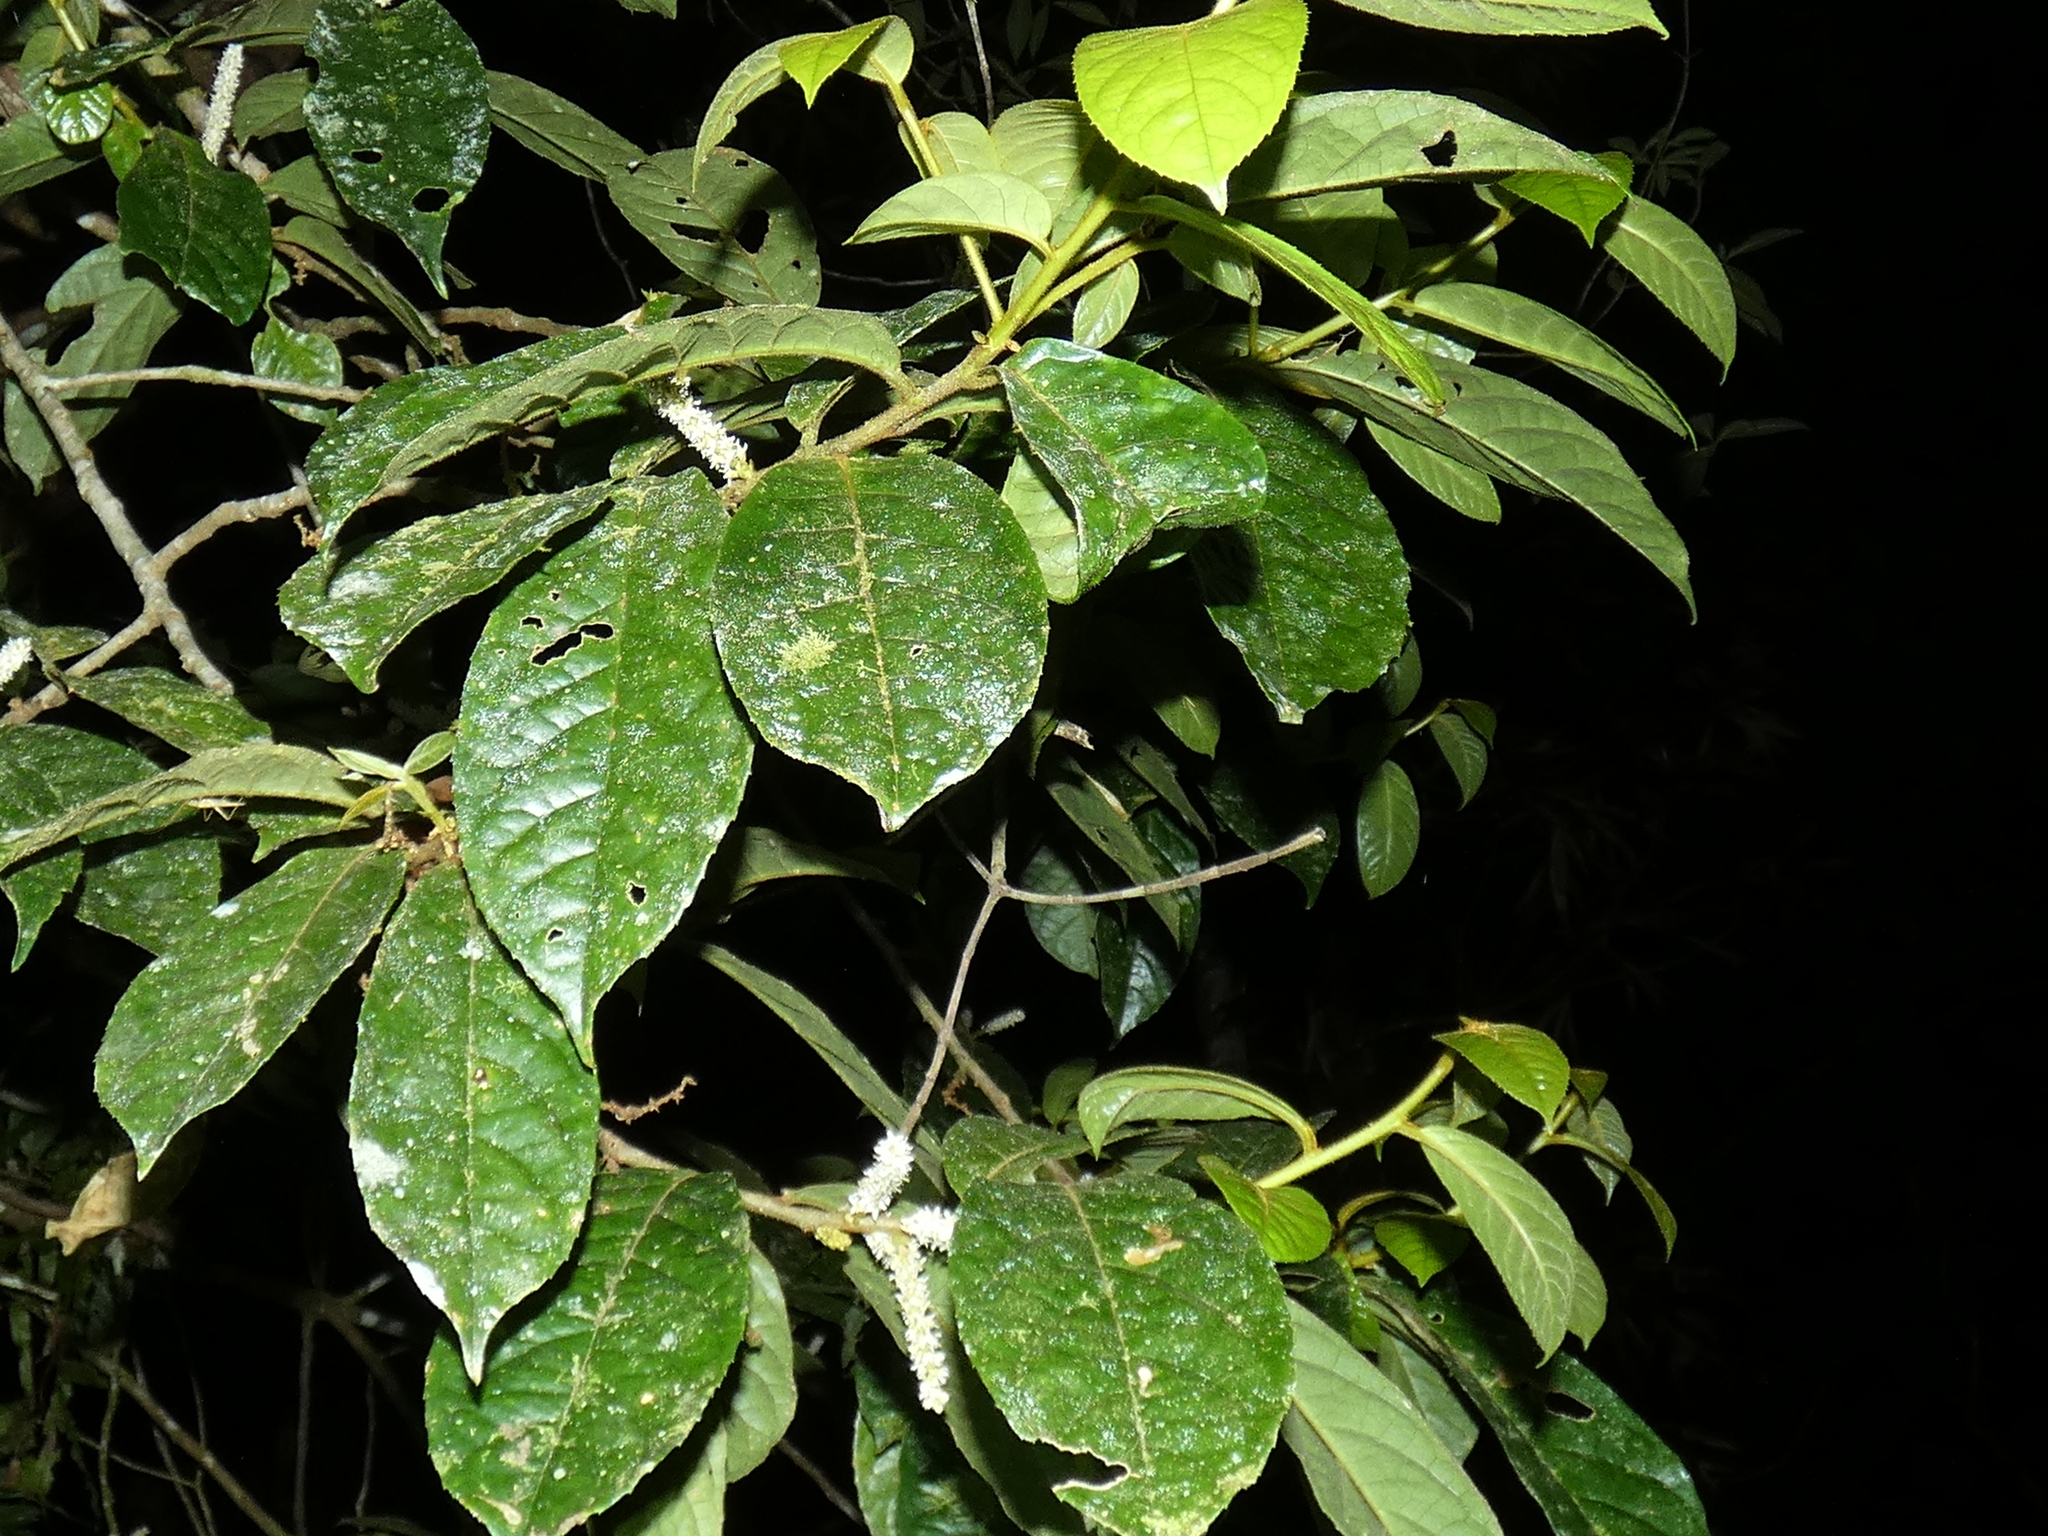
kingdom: Plantae
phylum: Tracheophyta
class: Magnoliopsida
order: Ericales
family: Symplocaceae
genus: Symplocos
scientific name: Symplocos paucistaminea
